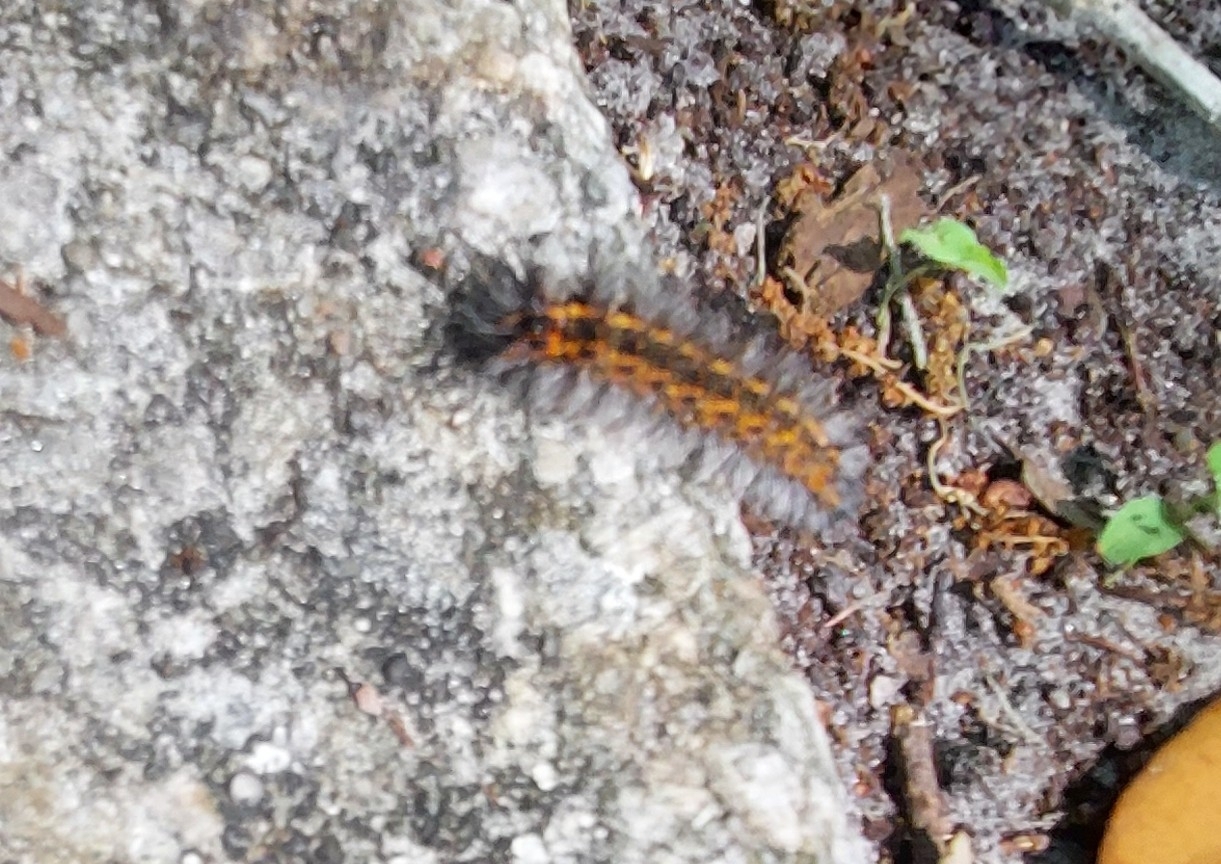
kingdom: Animalia
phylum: Arthropoda
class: Insecta
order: Lepidoptera
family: Erebidae
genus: Spilosoma
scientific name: Spilosoma dubia
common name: Dubious tiger moth
